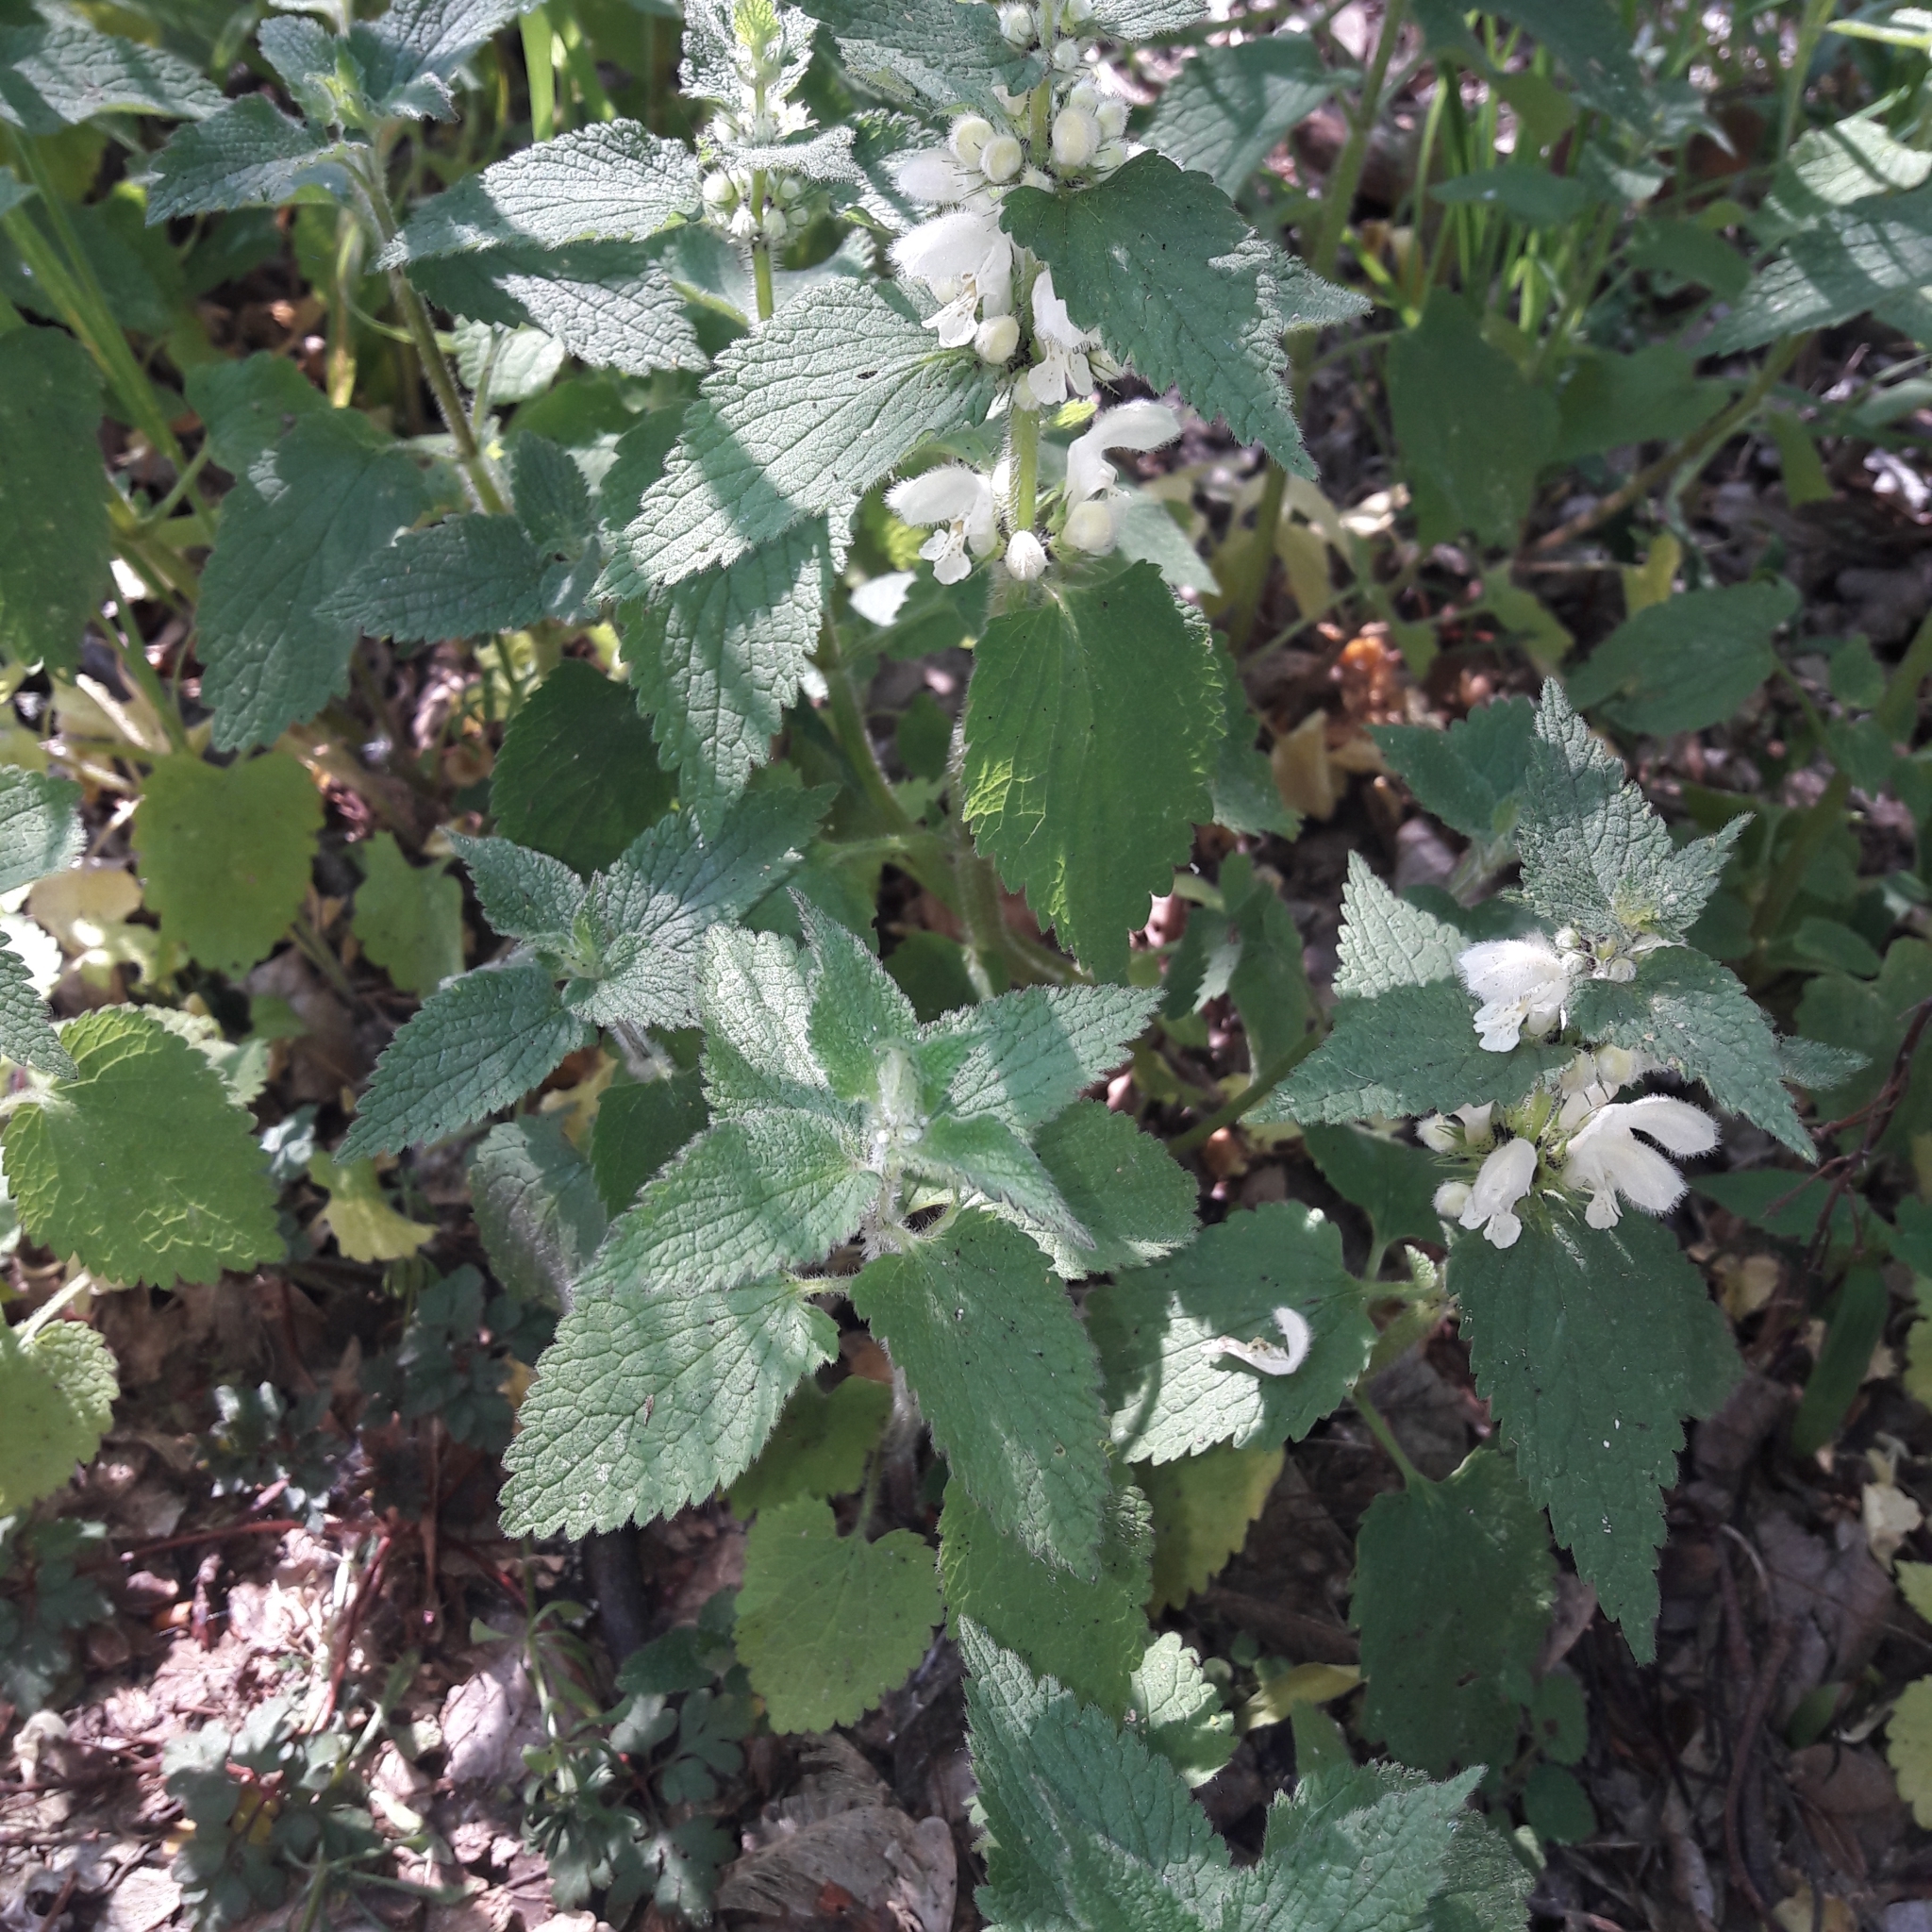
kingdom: Plantae
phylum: Tracheophyta
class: Magnoliopsida
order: Lamiales
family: Lamiaceae
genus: Lamium
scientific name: Lamium album
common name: White dead-nettle
